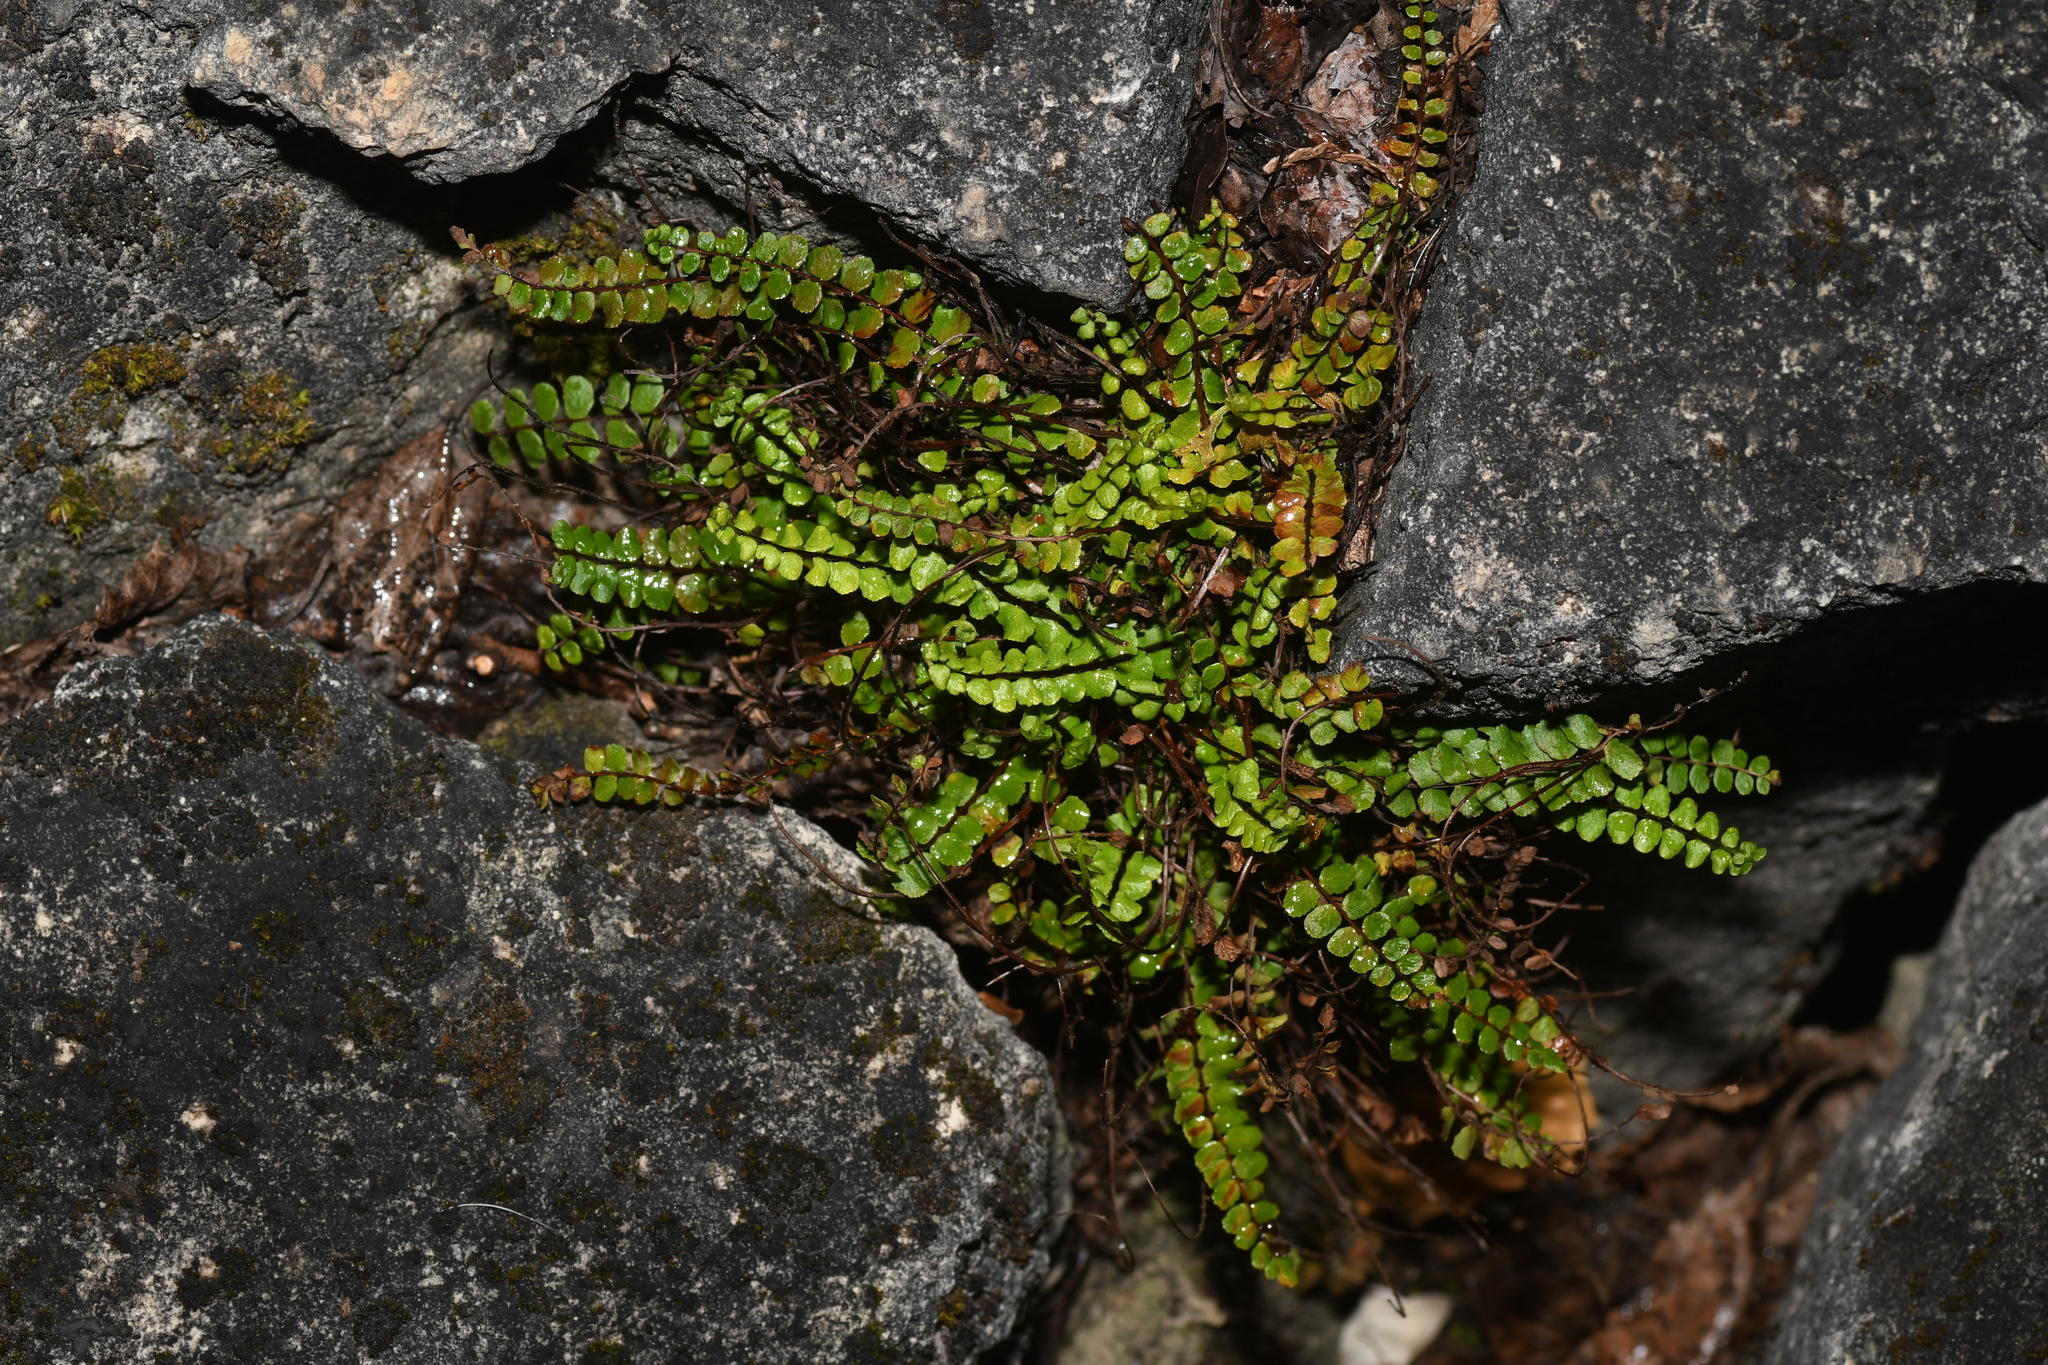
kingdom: Plantae
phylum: Tracheophyta
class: Polypodiopsida
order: Polypodiales
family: Aspleniaceae
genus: Asplenium
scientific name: Asplenium trichomanes
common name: Maidenhair spleenwort
